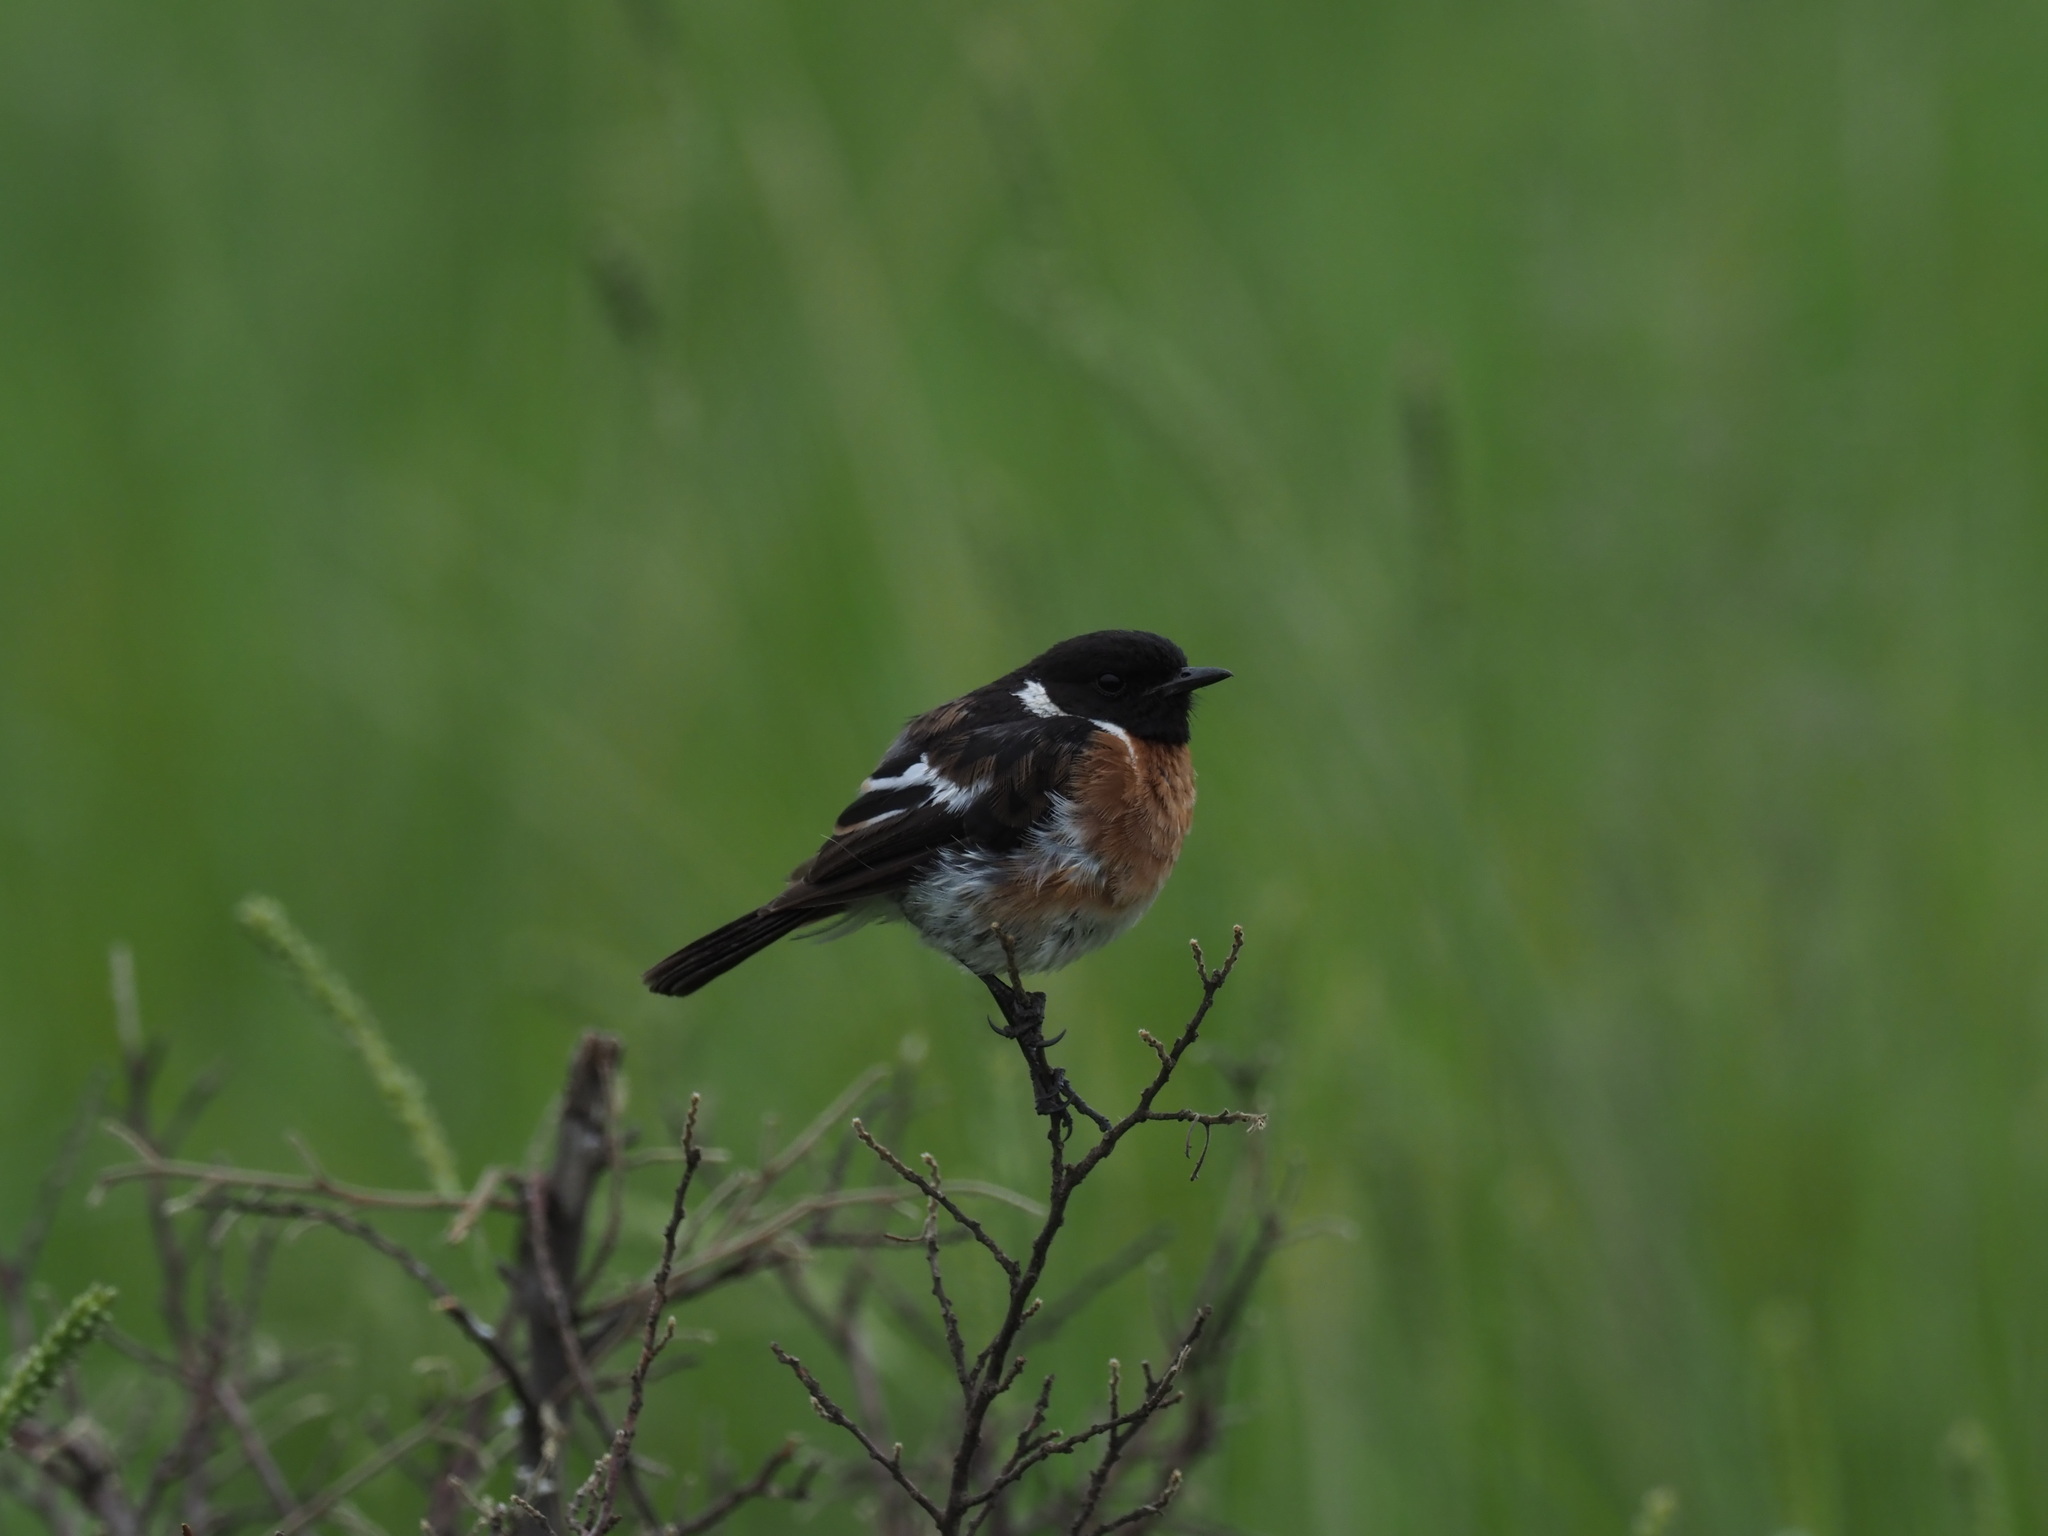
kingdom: Animalia
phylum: Chordata
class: Aves
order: Passeriformes
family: Muscicapidae
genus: Saxicola
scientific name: Saxicola torquatus
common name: African stonechat
